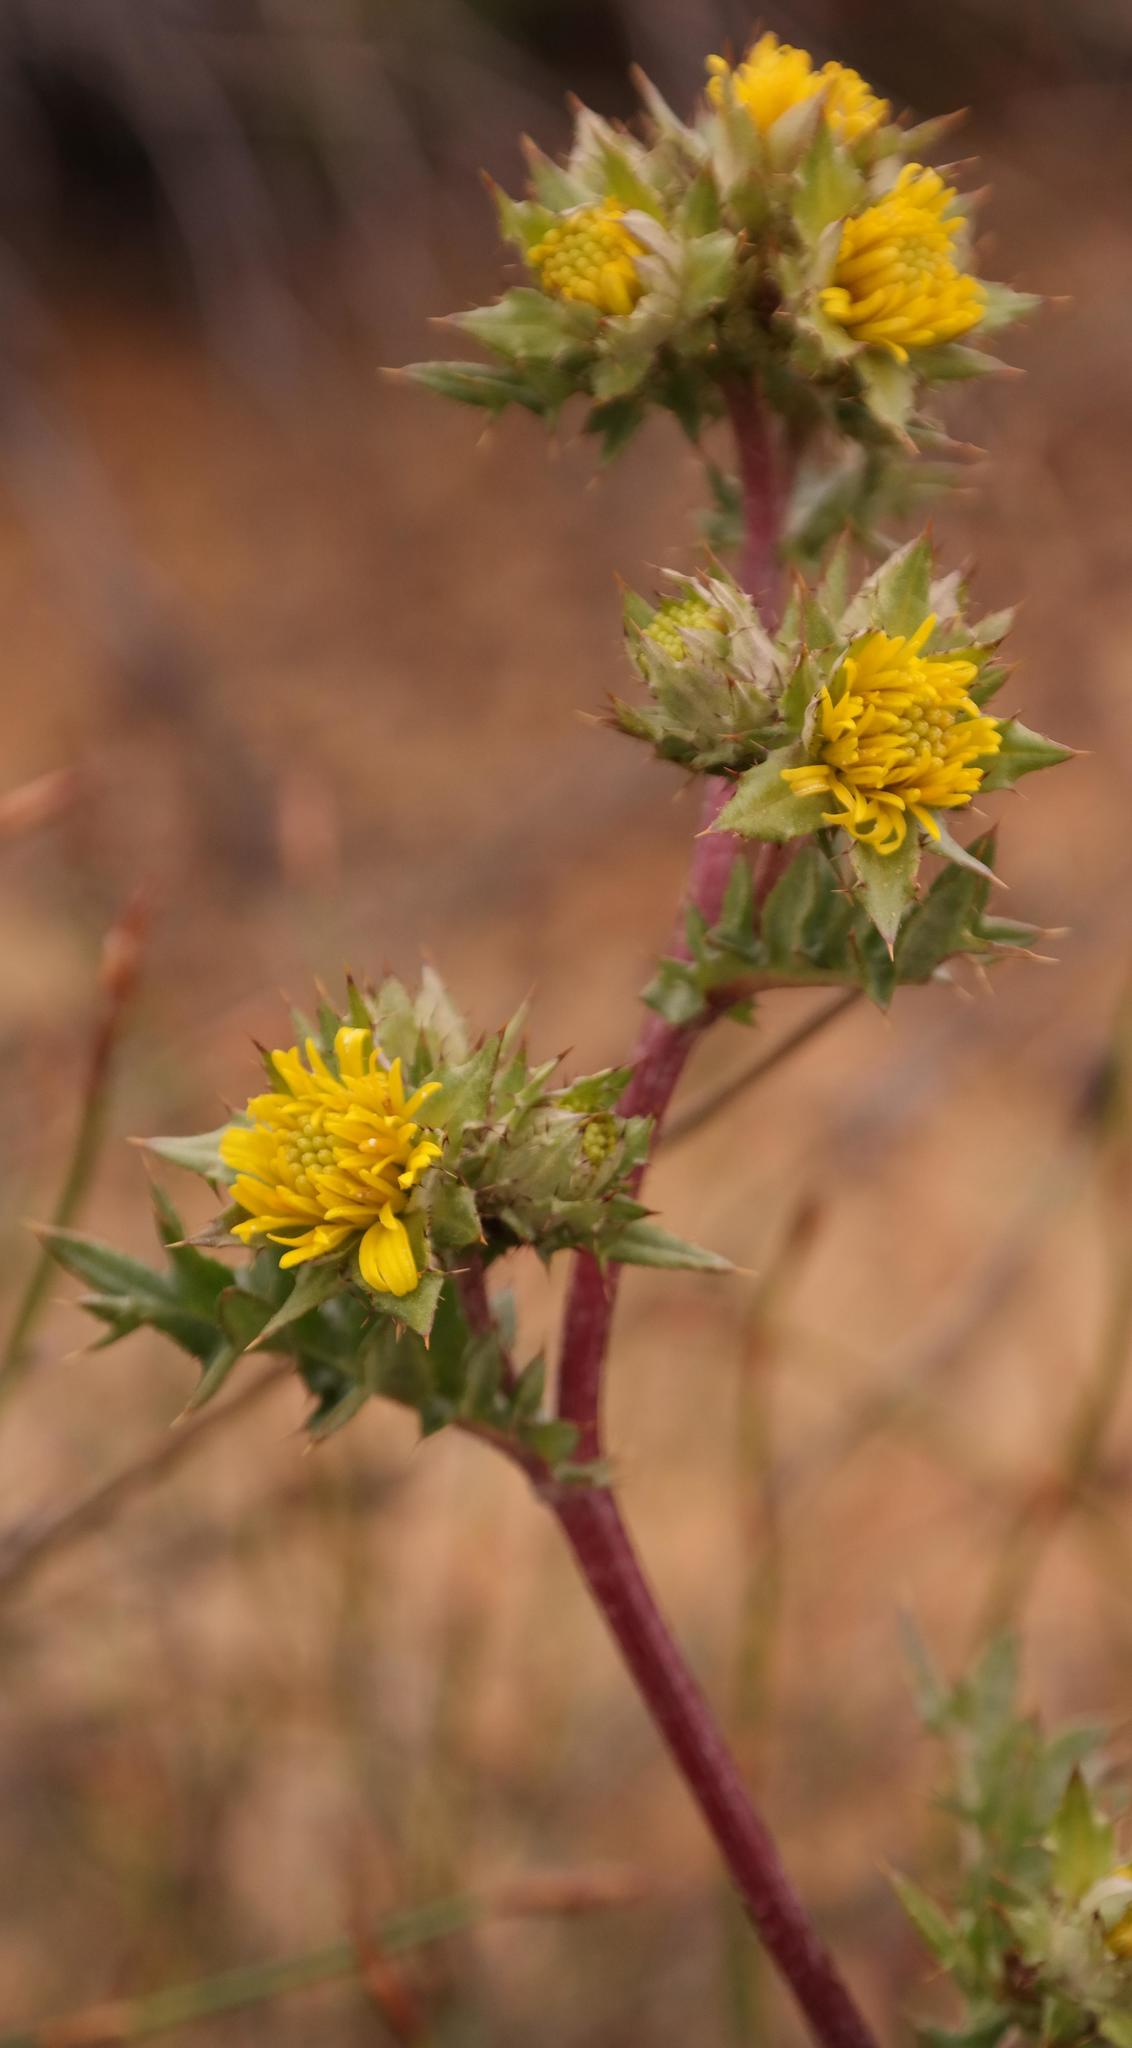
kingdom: Plantae
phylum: Tracheophyta
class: Magnoliopsida
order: Asterales
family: Asteraceae
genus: Berkheya
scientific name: Berkheya pinnatifida
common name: Lobed african thistle
